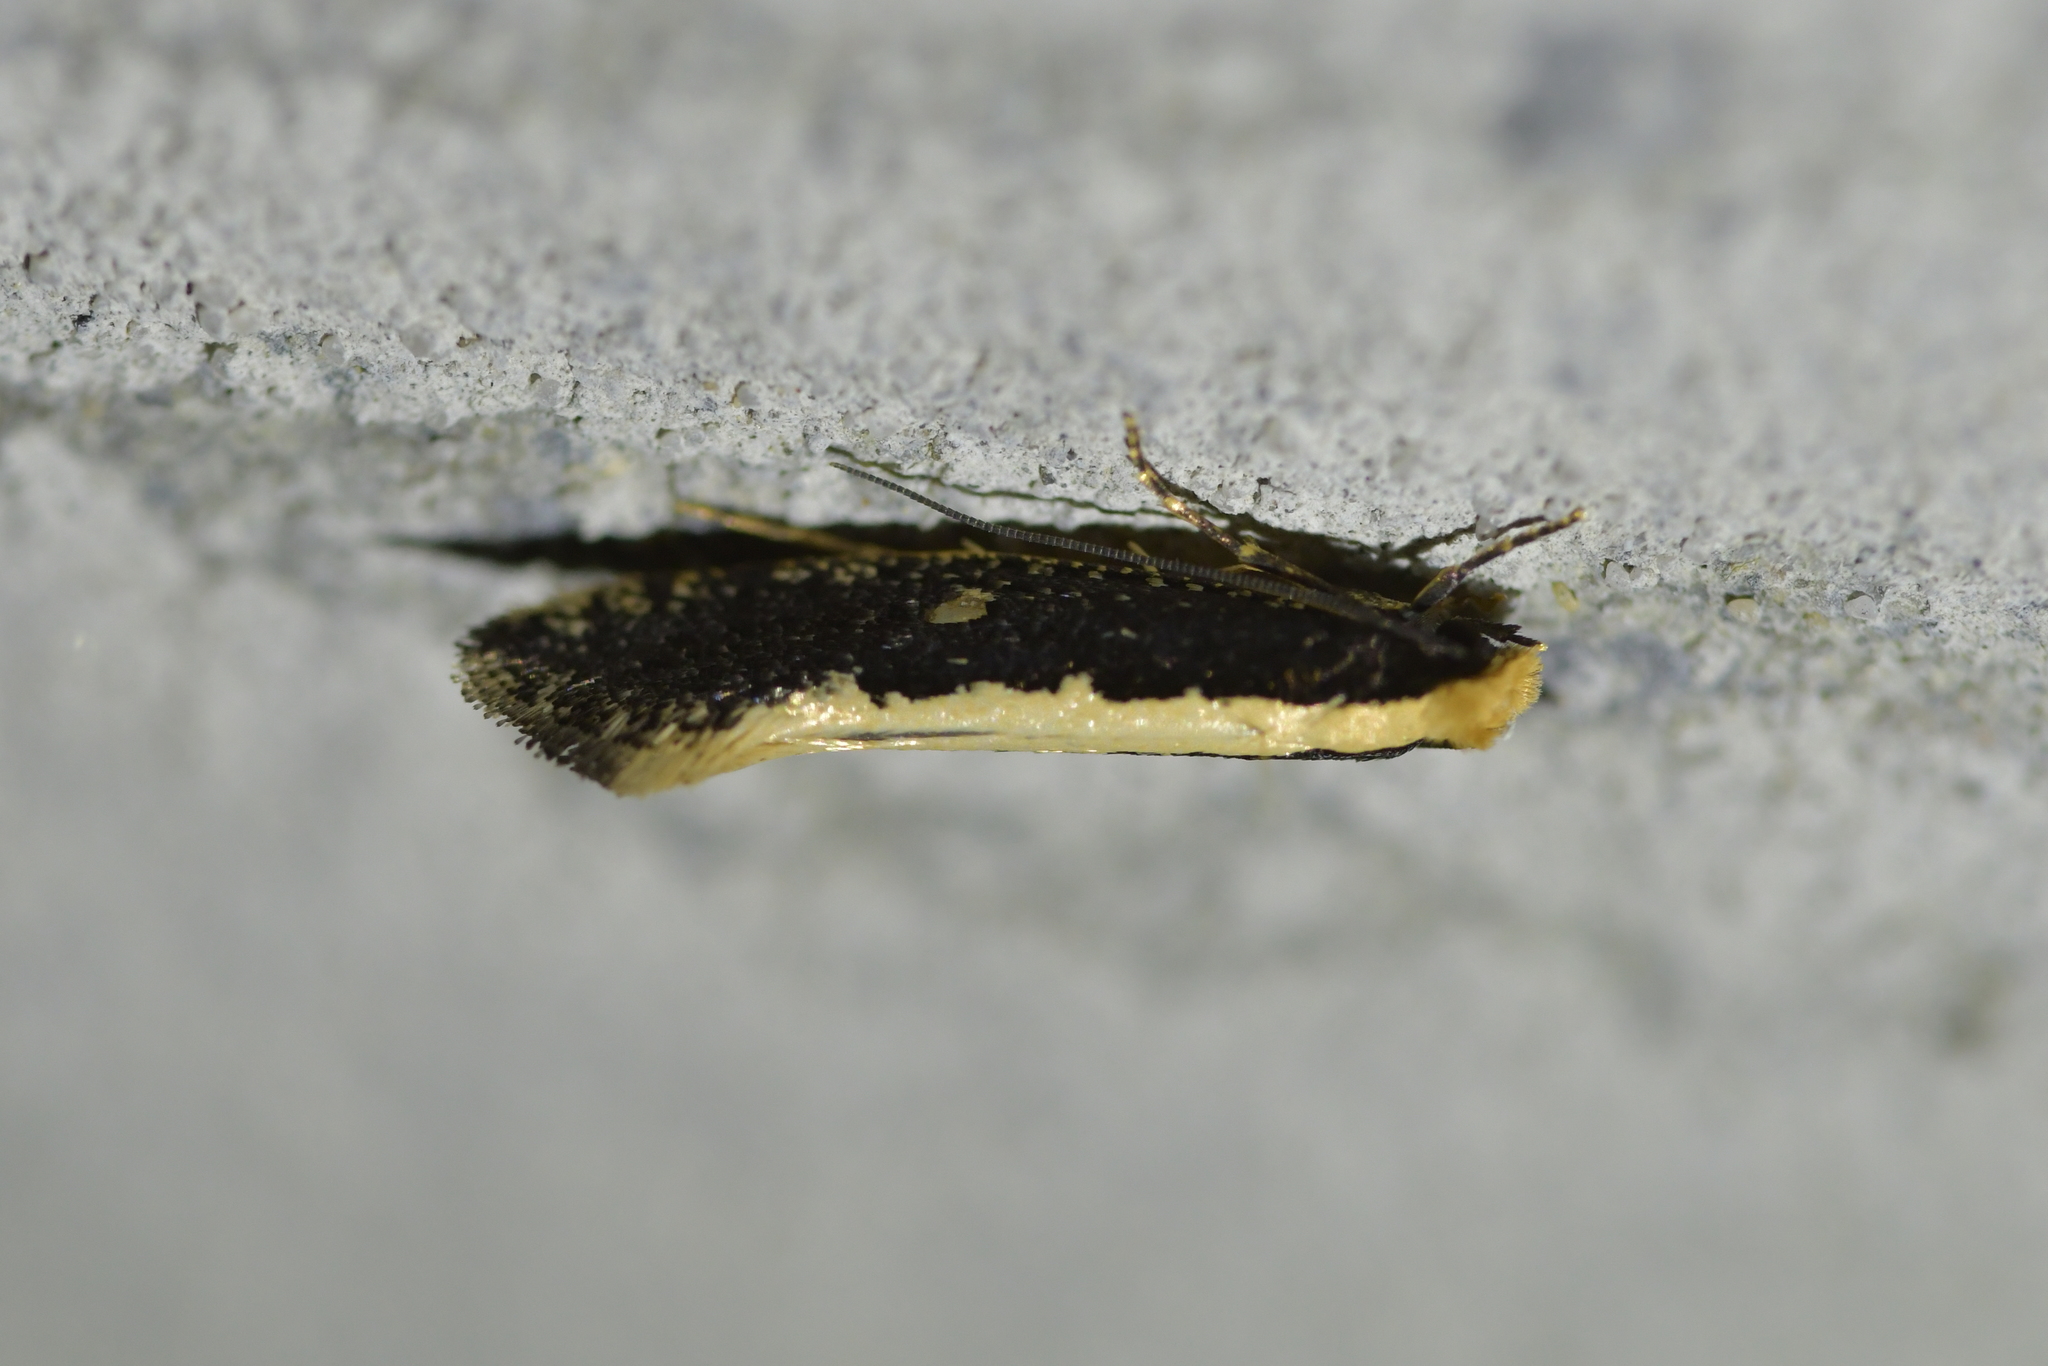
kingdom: Animalia
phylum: Arthropoda
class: Insecta
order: Lepidoptera
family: Tineidae
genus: Monopis
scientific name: Monopis ethelella
